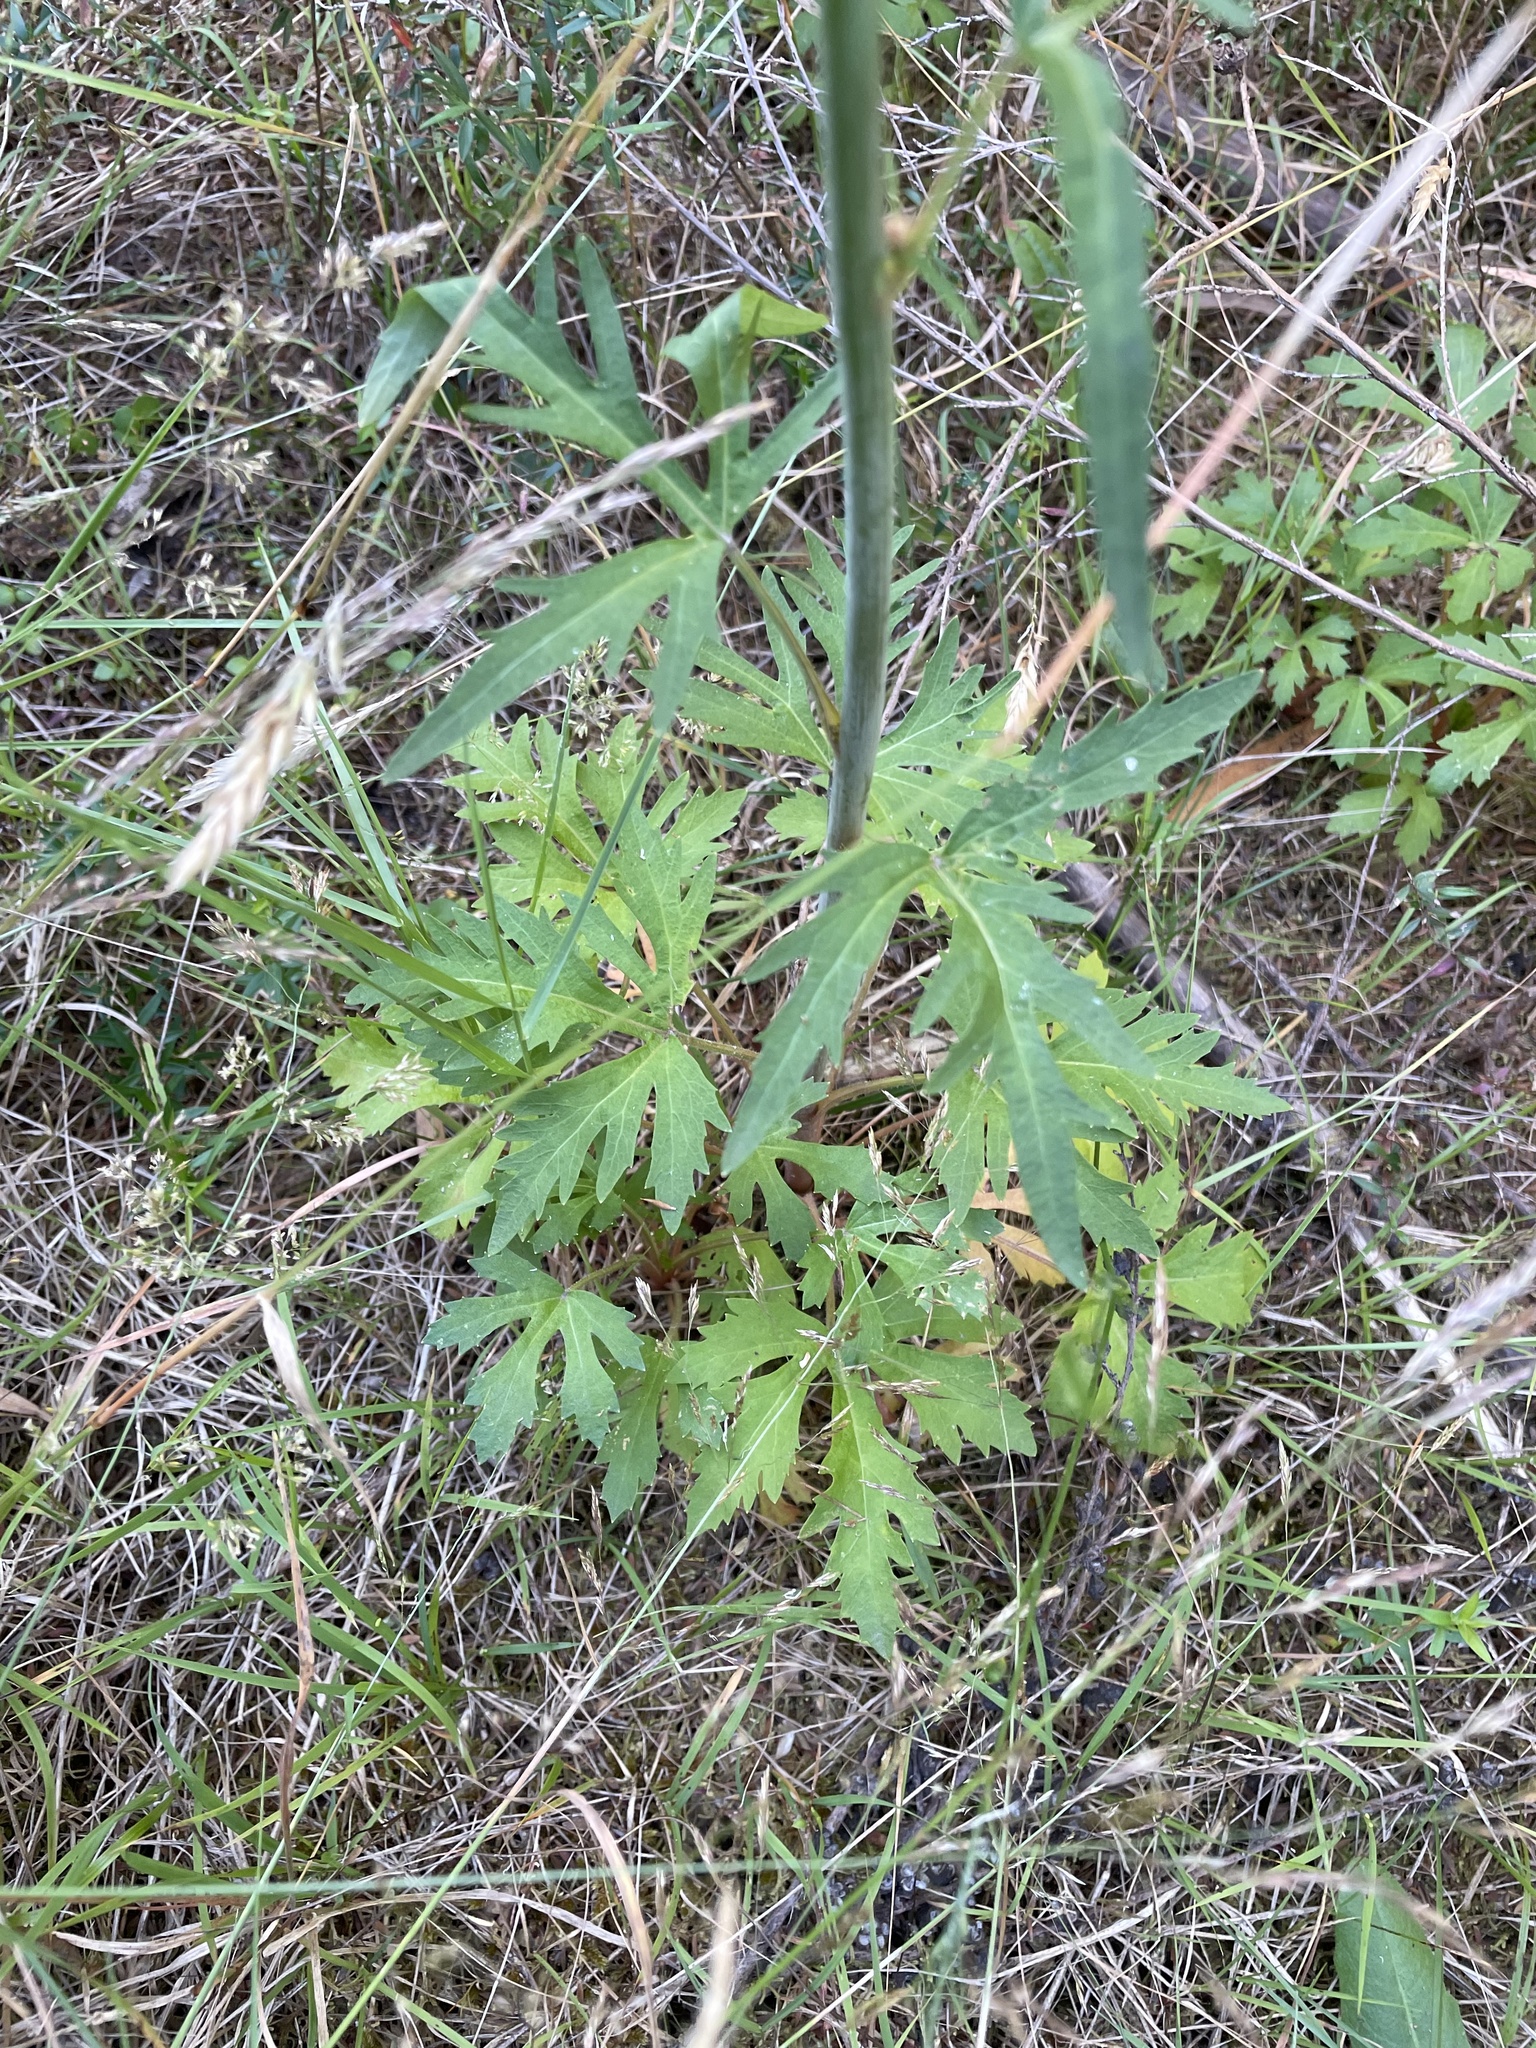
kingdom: Plantae
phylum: Tracheophyta
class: Magnoliopsida
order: Apiales
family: Araliaceae
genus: Trachymene
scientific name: Trachymene composita
